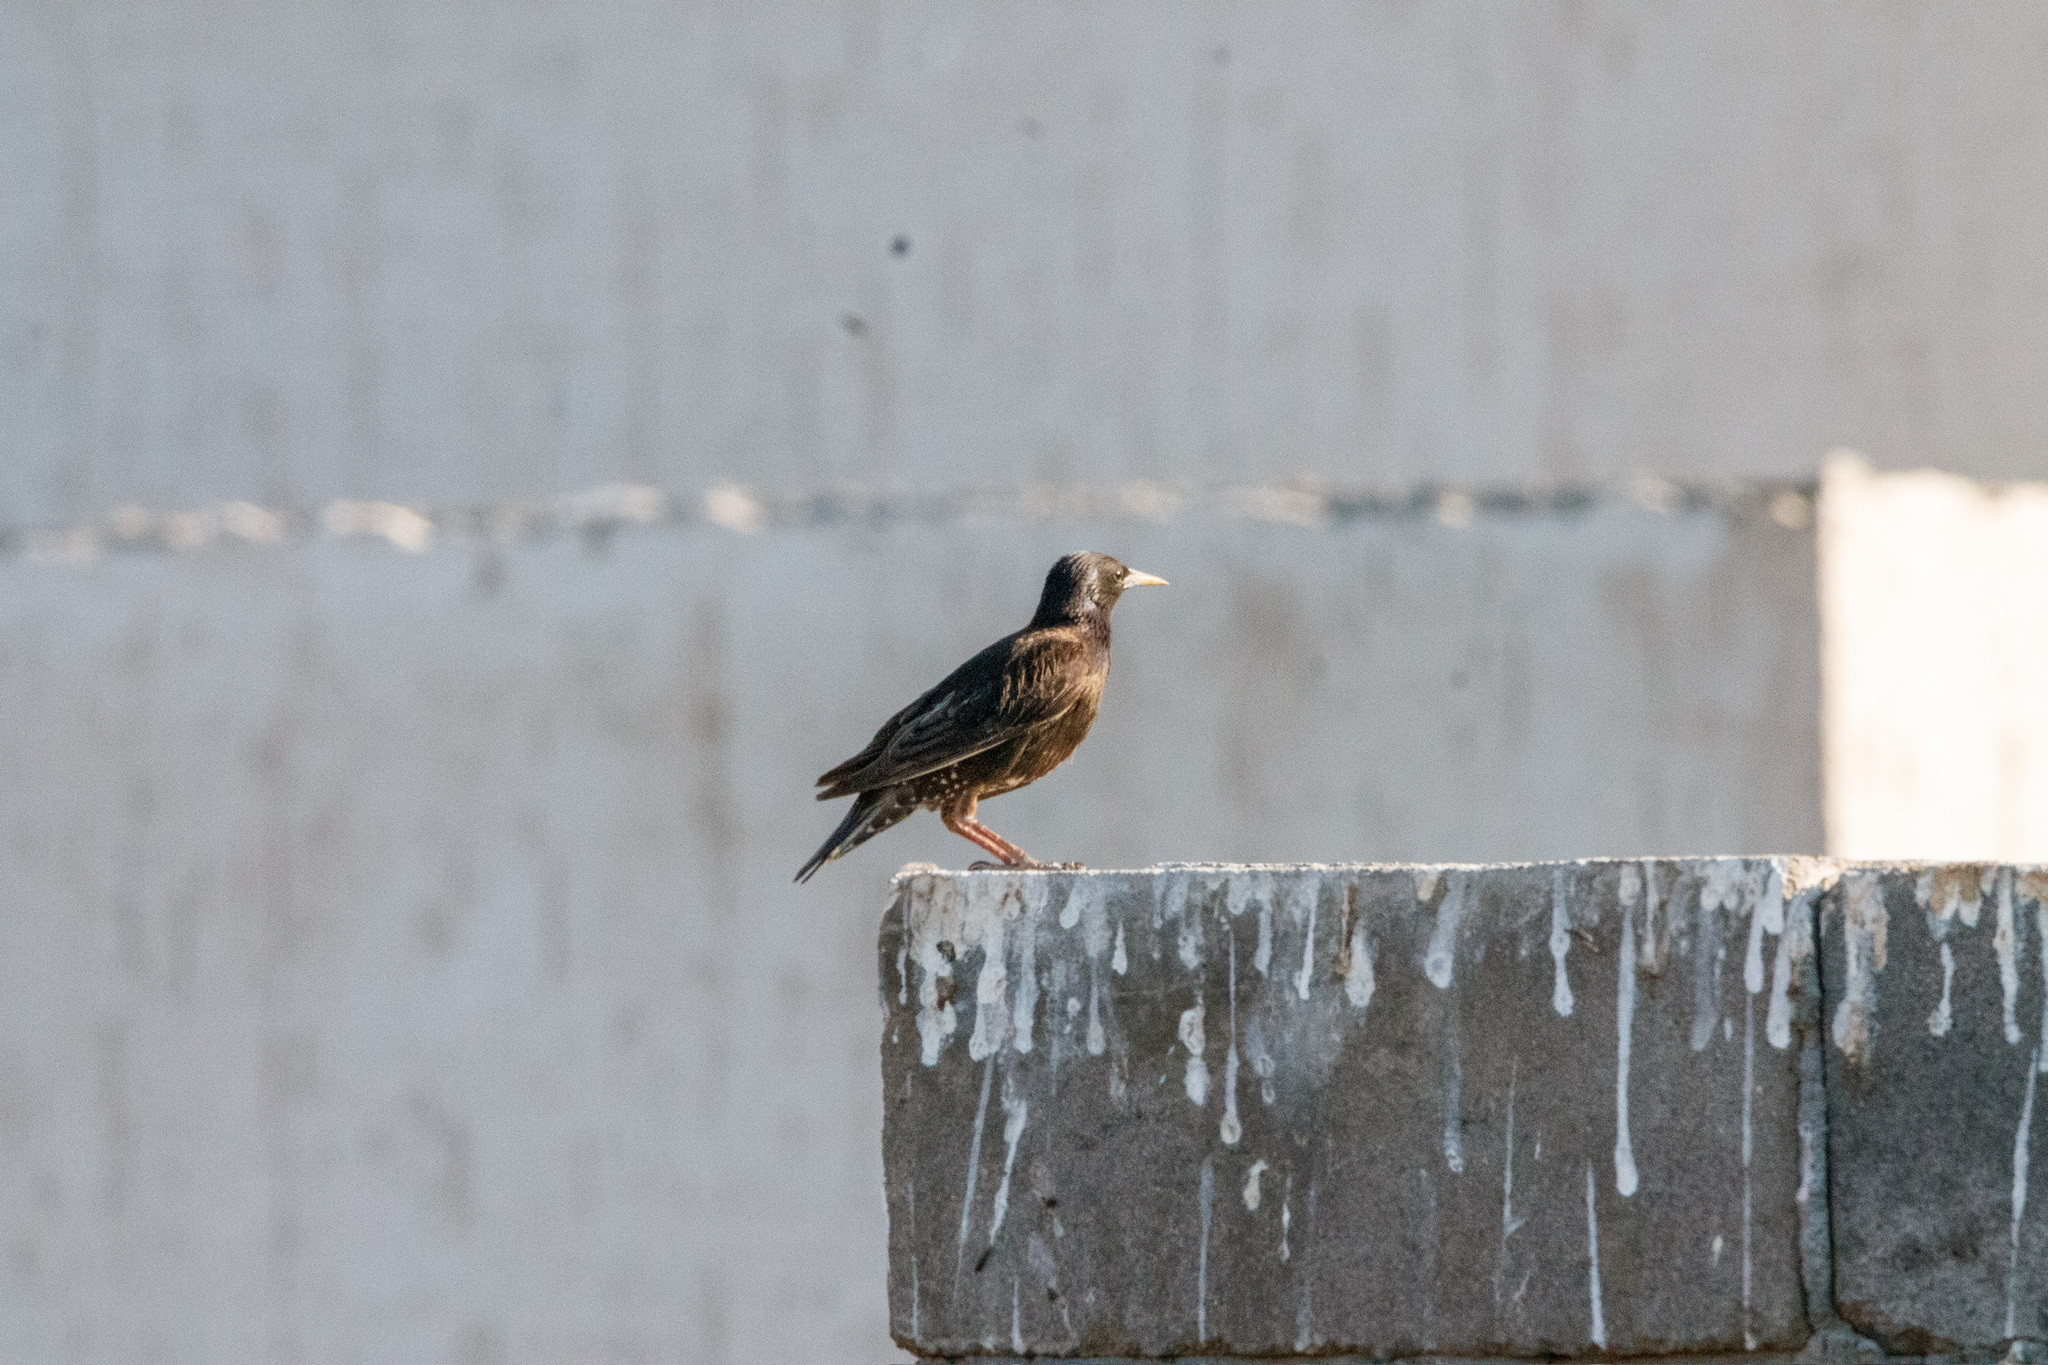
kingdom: Animalia
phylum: Chordata
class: Aves
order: Passeriformes
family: Sturnidae
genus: Sturnus
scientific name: Sturnus vulgaris
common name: Common starling
